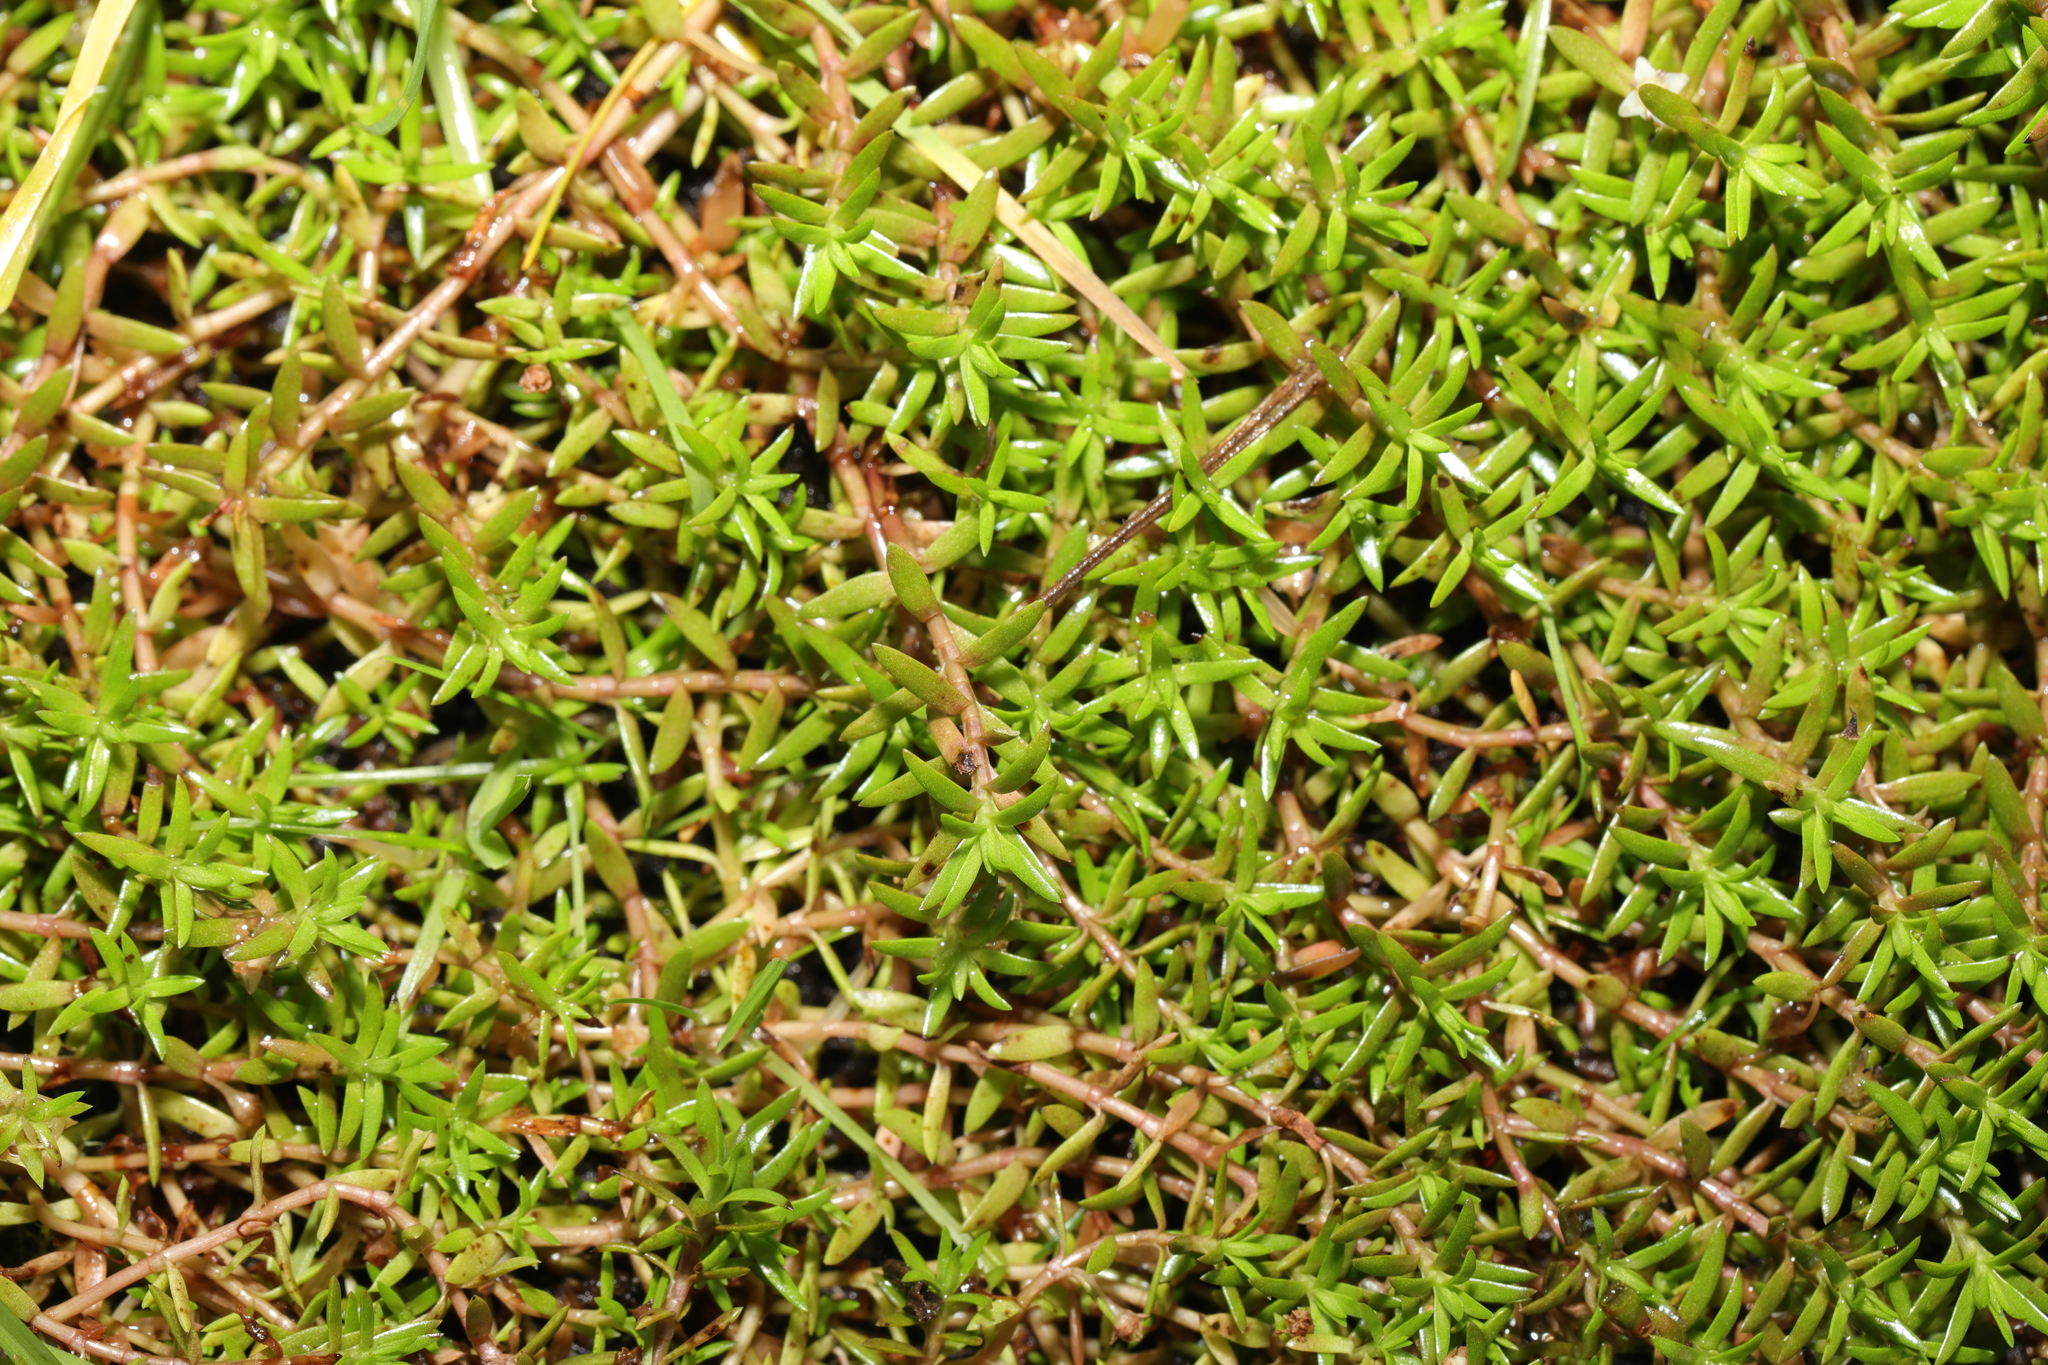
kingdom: Plantae
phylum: Tracheophyta
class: Magnoliopsida
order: Saxifragales
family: Crassulaceae
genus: Crassula
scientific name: Crassula helmsii
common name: New zealand pigmyweed
